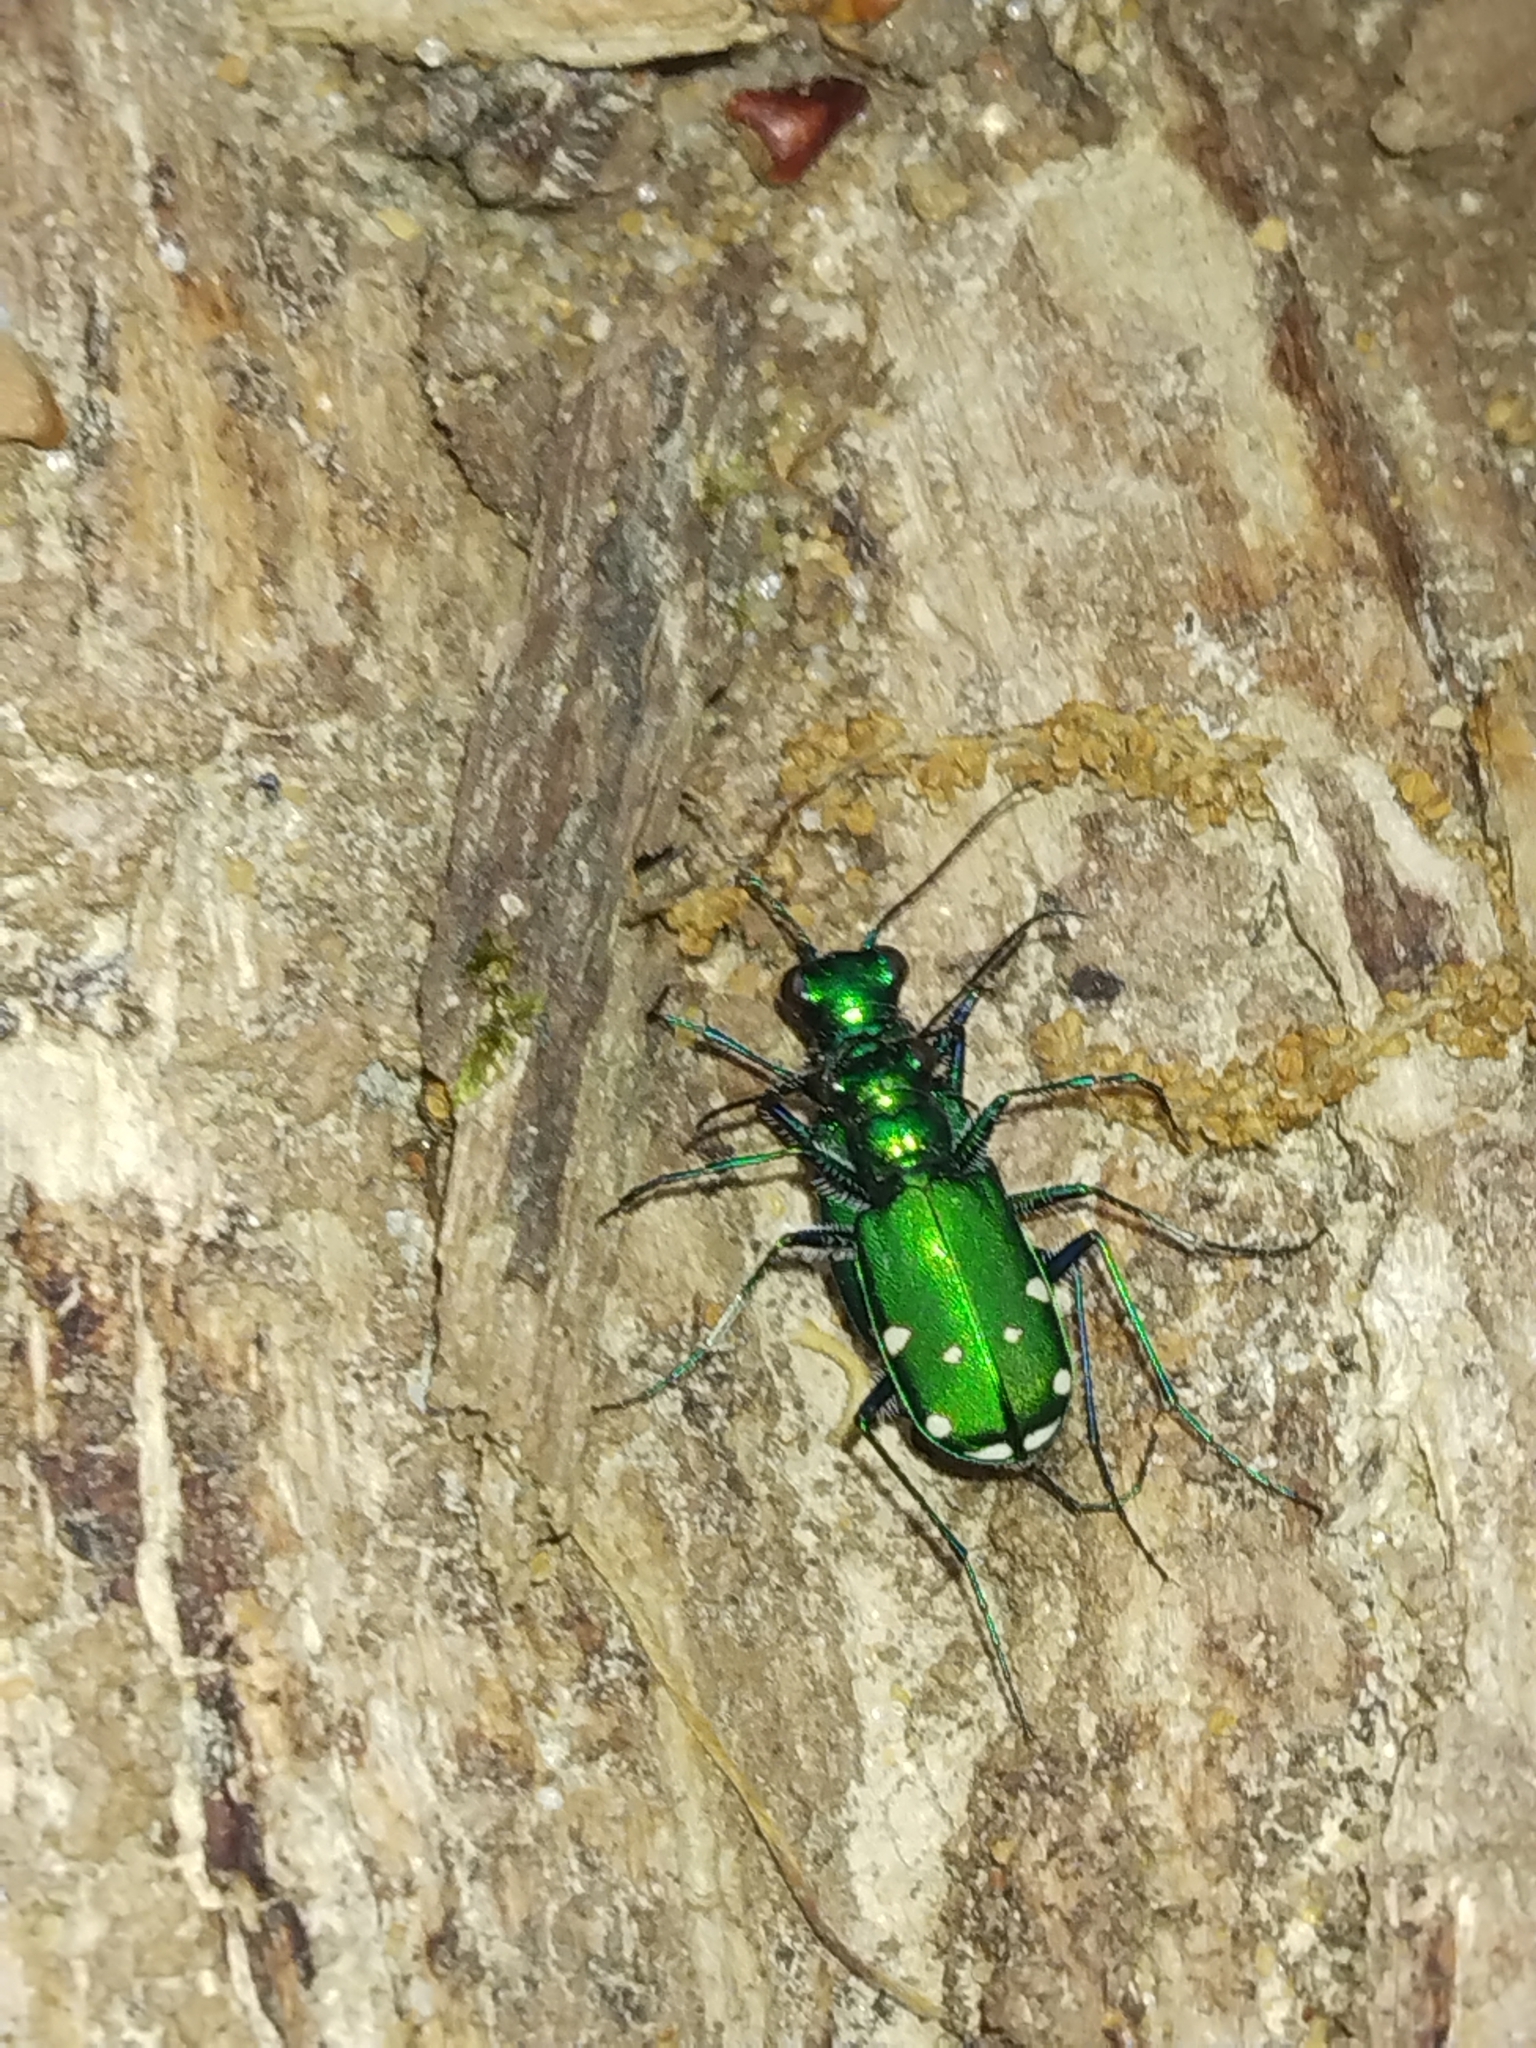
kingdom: Animalia
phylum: Arthropoda
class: Insecta
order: Coleoptera
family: Carabidae
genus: Cicindela
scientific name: Cicindela sexguttata
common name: Six-spotted tiger beetle
